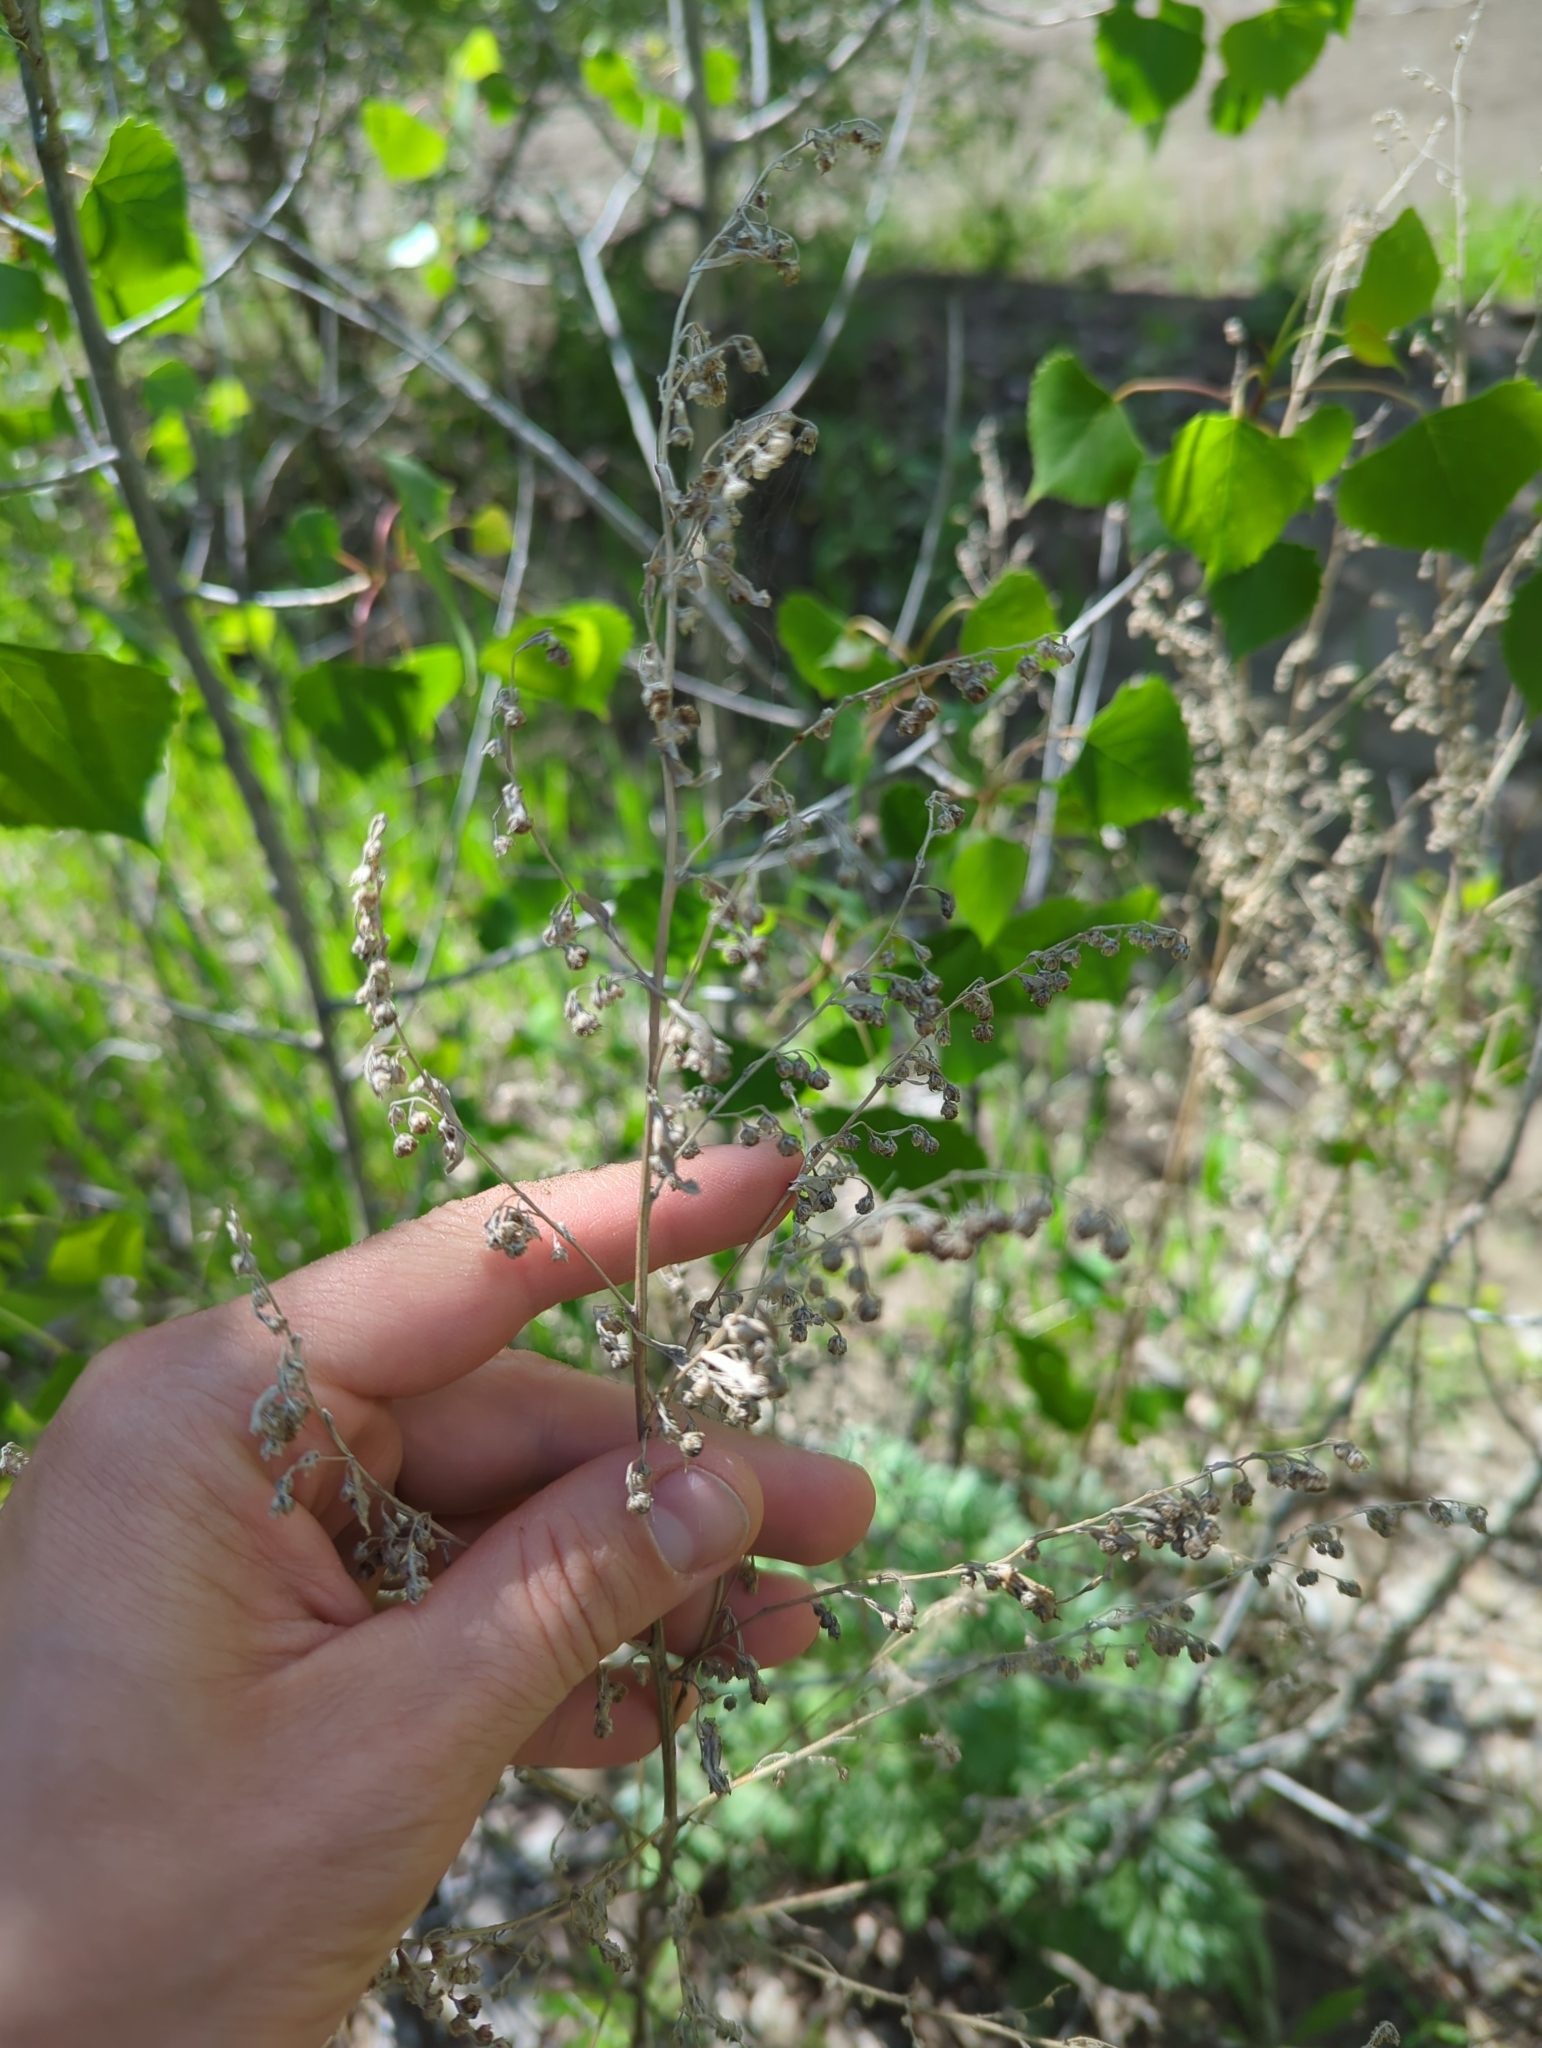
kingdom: Plantae
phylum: Tracheophyta
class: Magnoliopsida
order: Asterales
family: Asteraceae
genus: Artemisia
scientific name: Artemisia absinthium
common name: Wormwood
